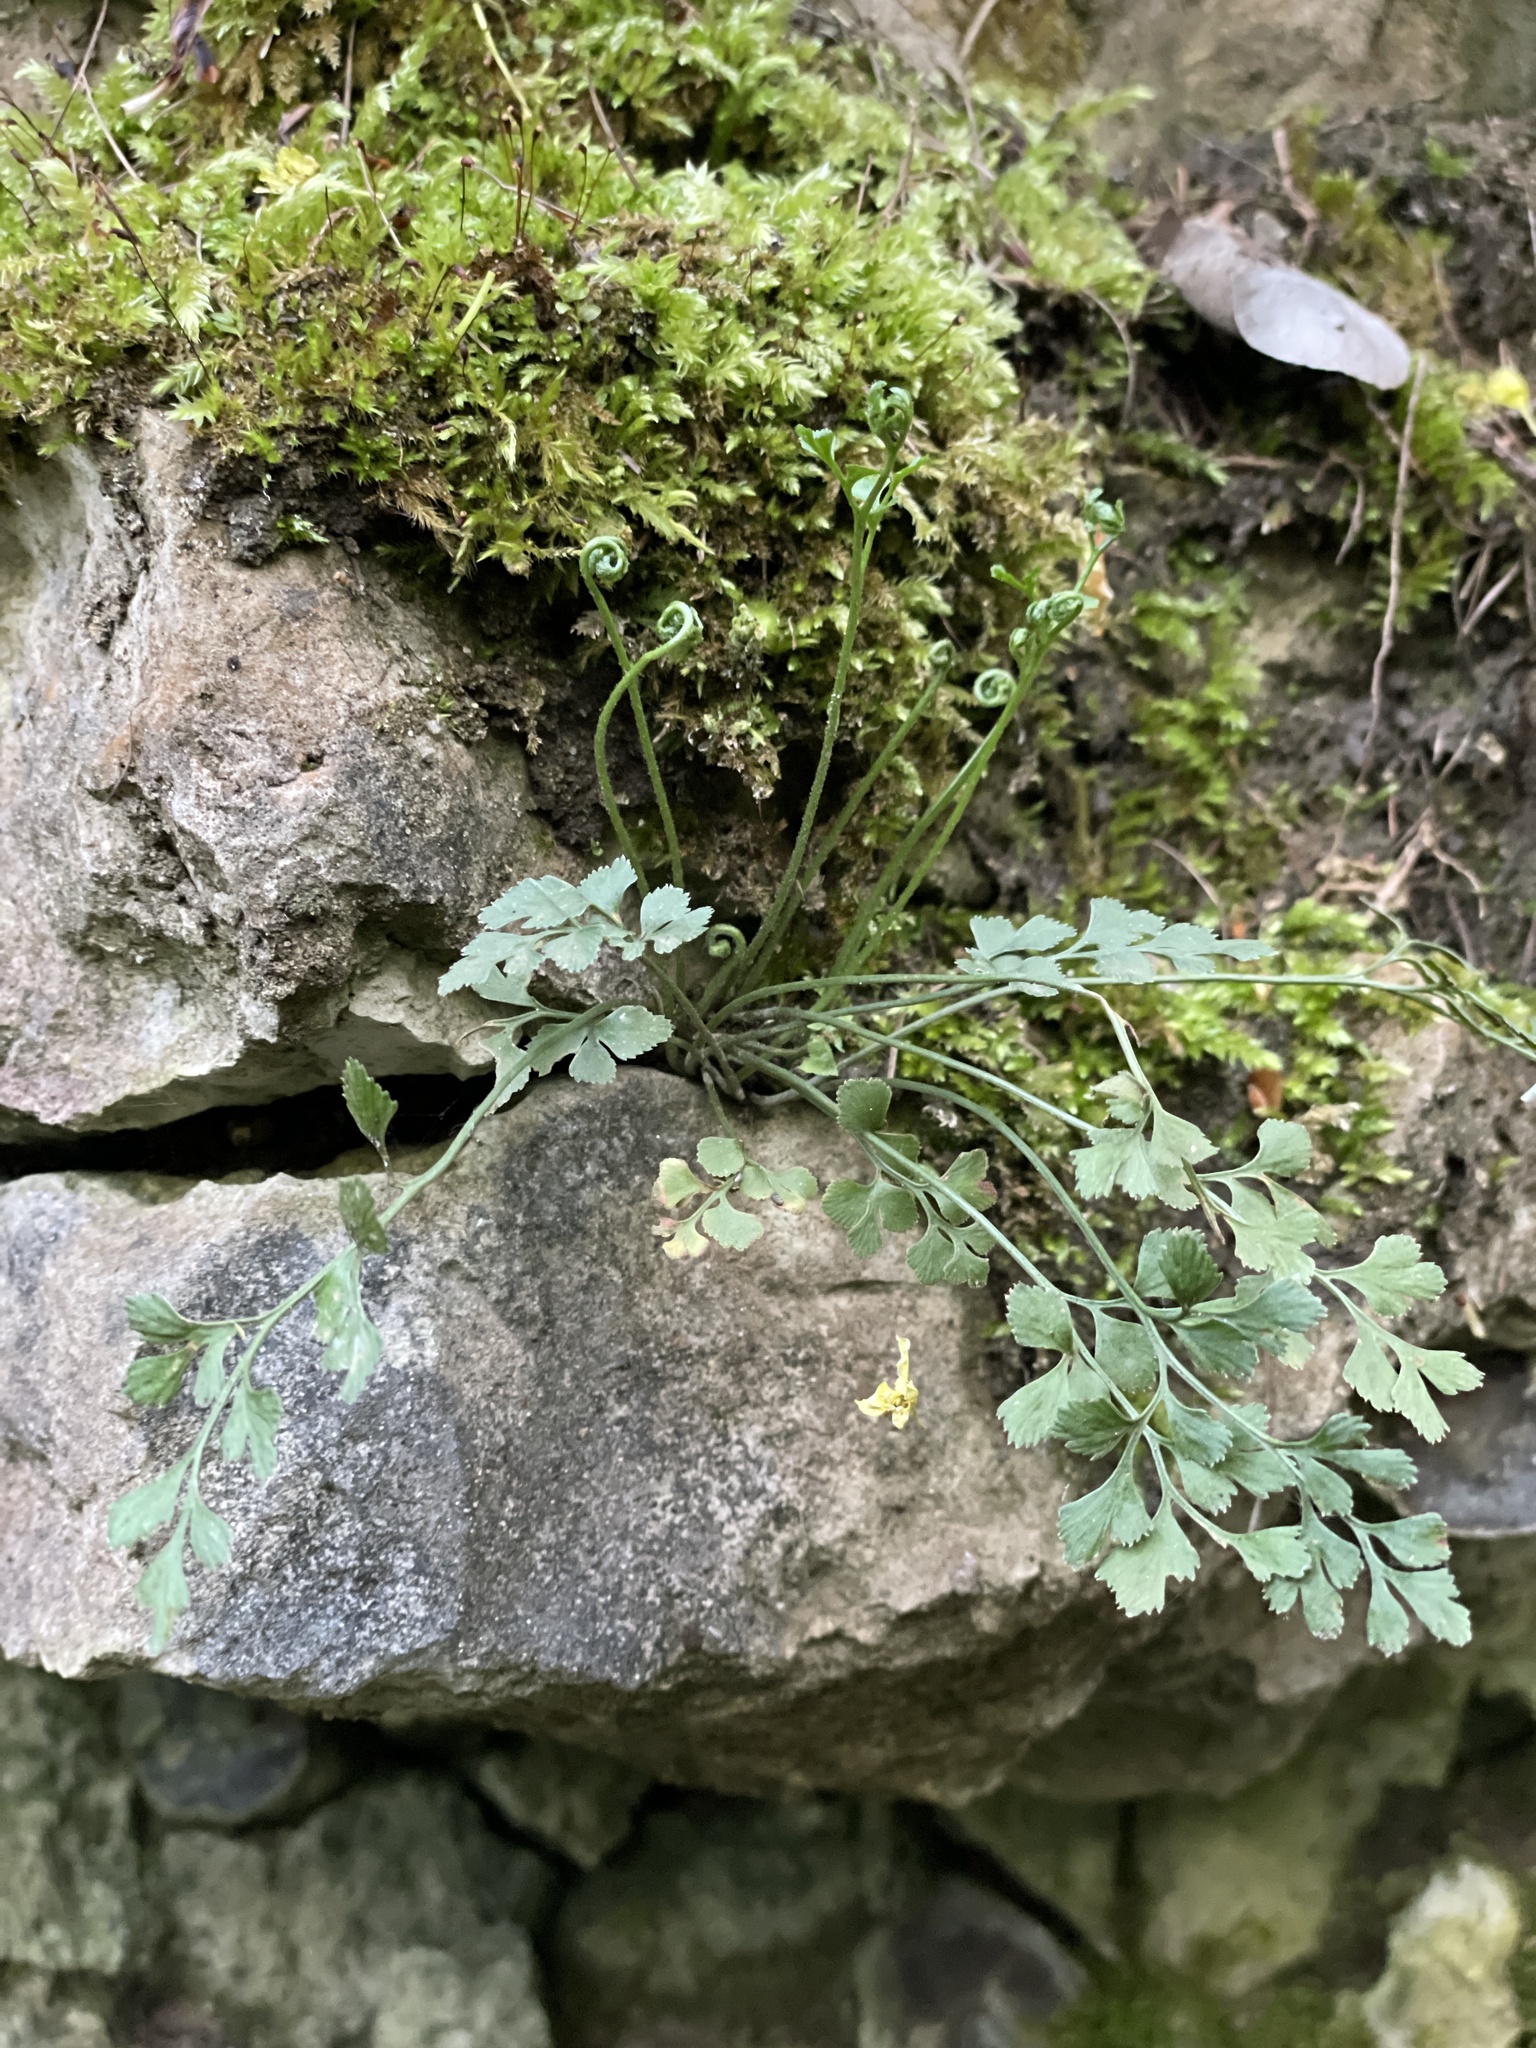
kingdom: Plantae
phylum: Tracheophyta
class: Polypodiopsida
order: Polypodiales
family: Aspleniaceae
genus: Asplenium
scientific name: Asplenium ruta-muraria
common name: Wall-rue
